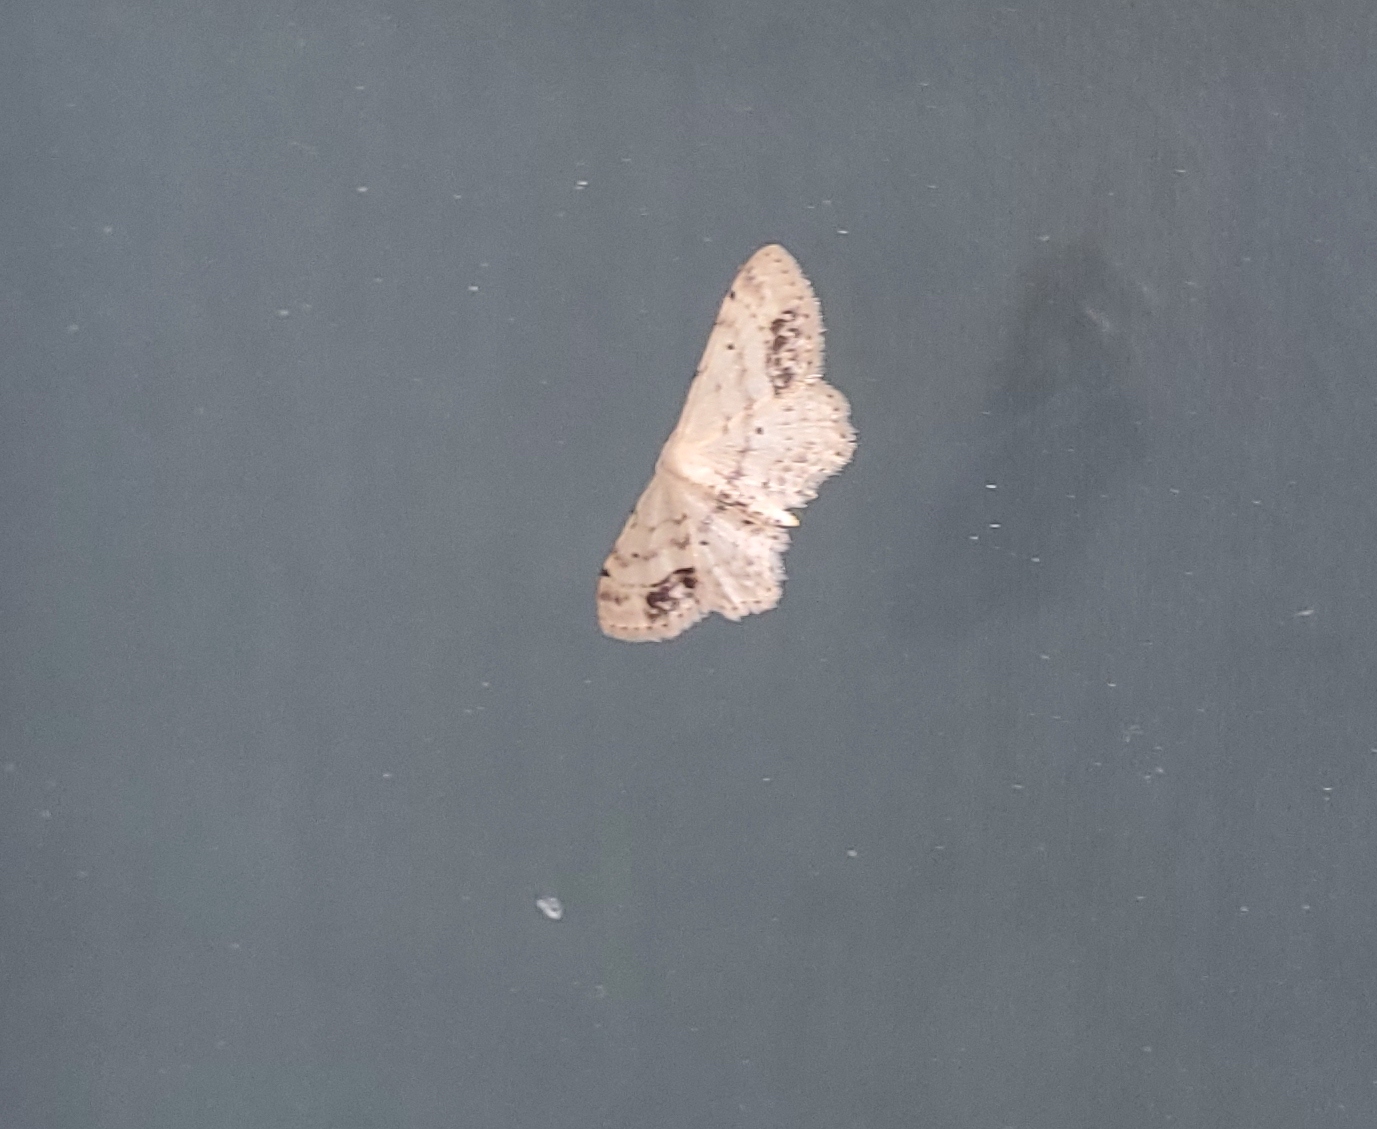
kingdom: Animalia
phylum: Arthropoda
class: Insecta
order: Lepidoptera
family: Geometridae
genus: Idaea
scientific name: Idaea dimidiata
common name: Single-dotted wave
